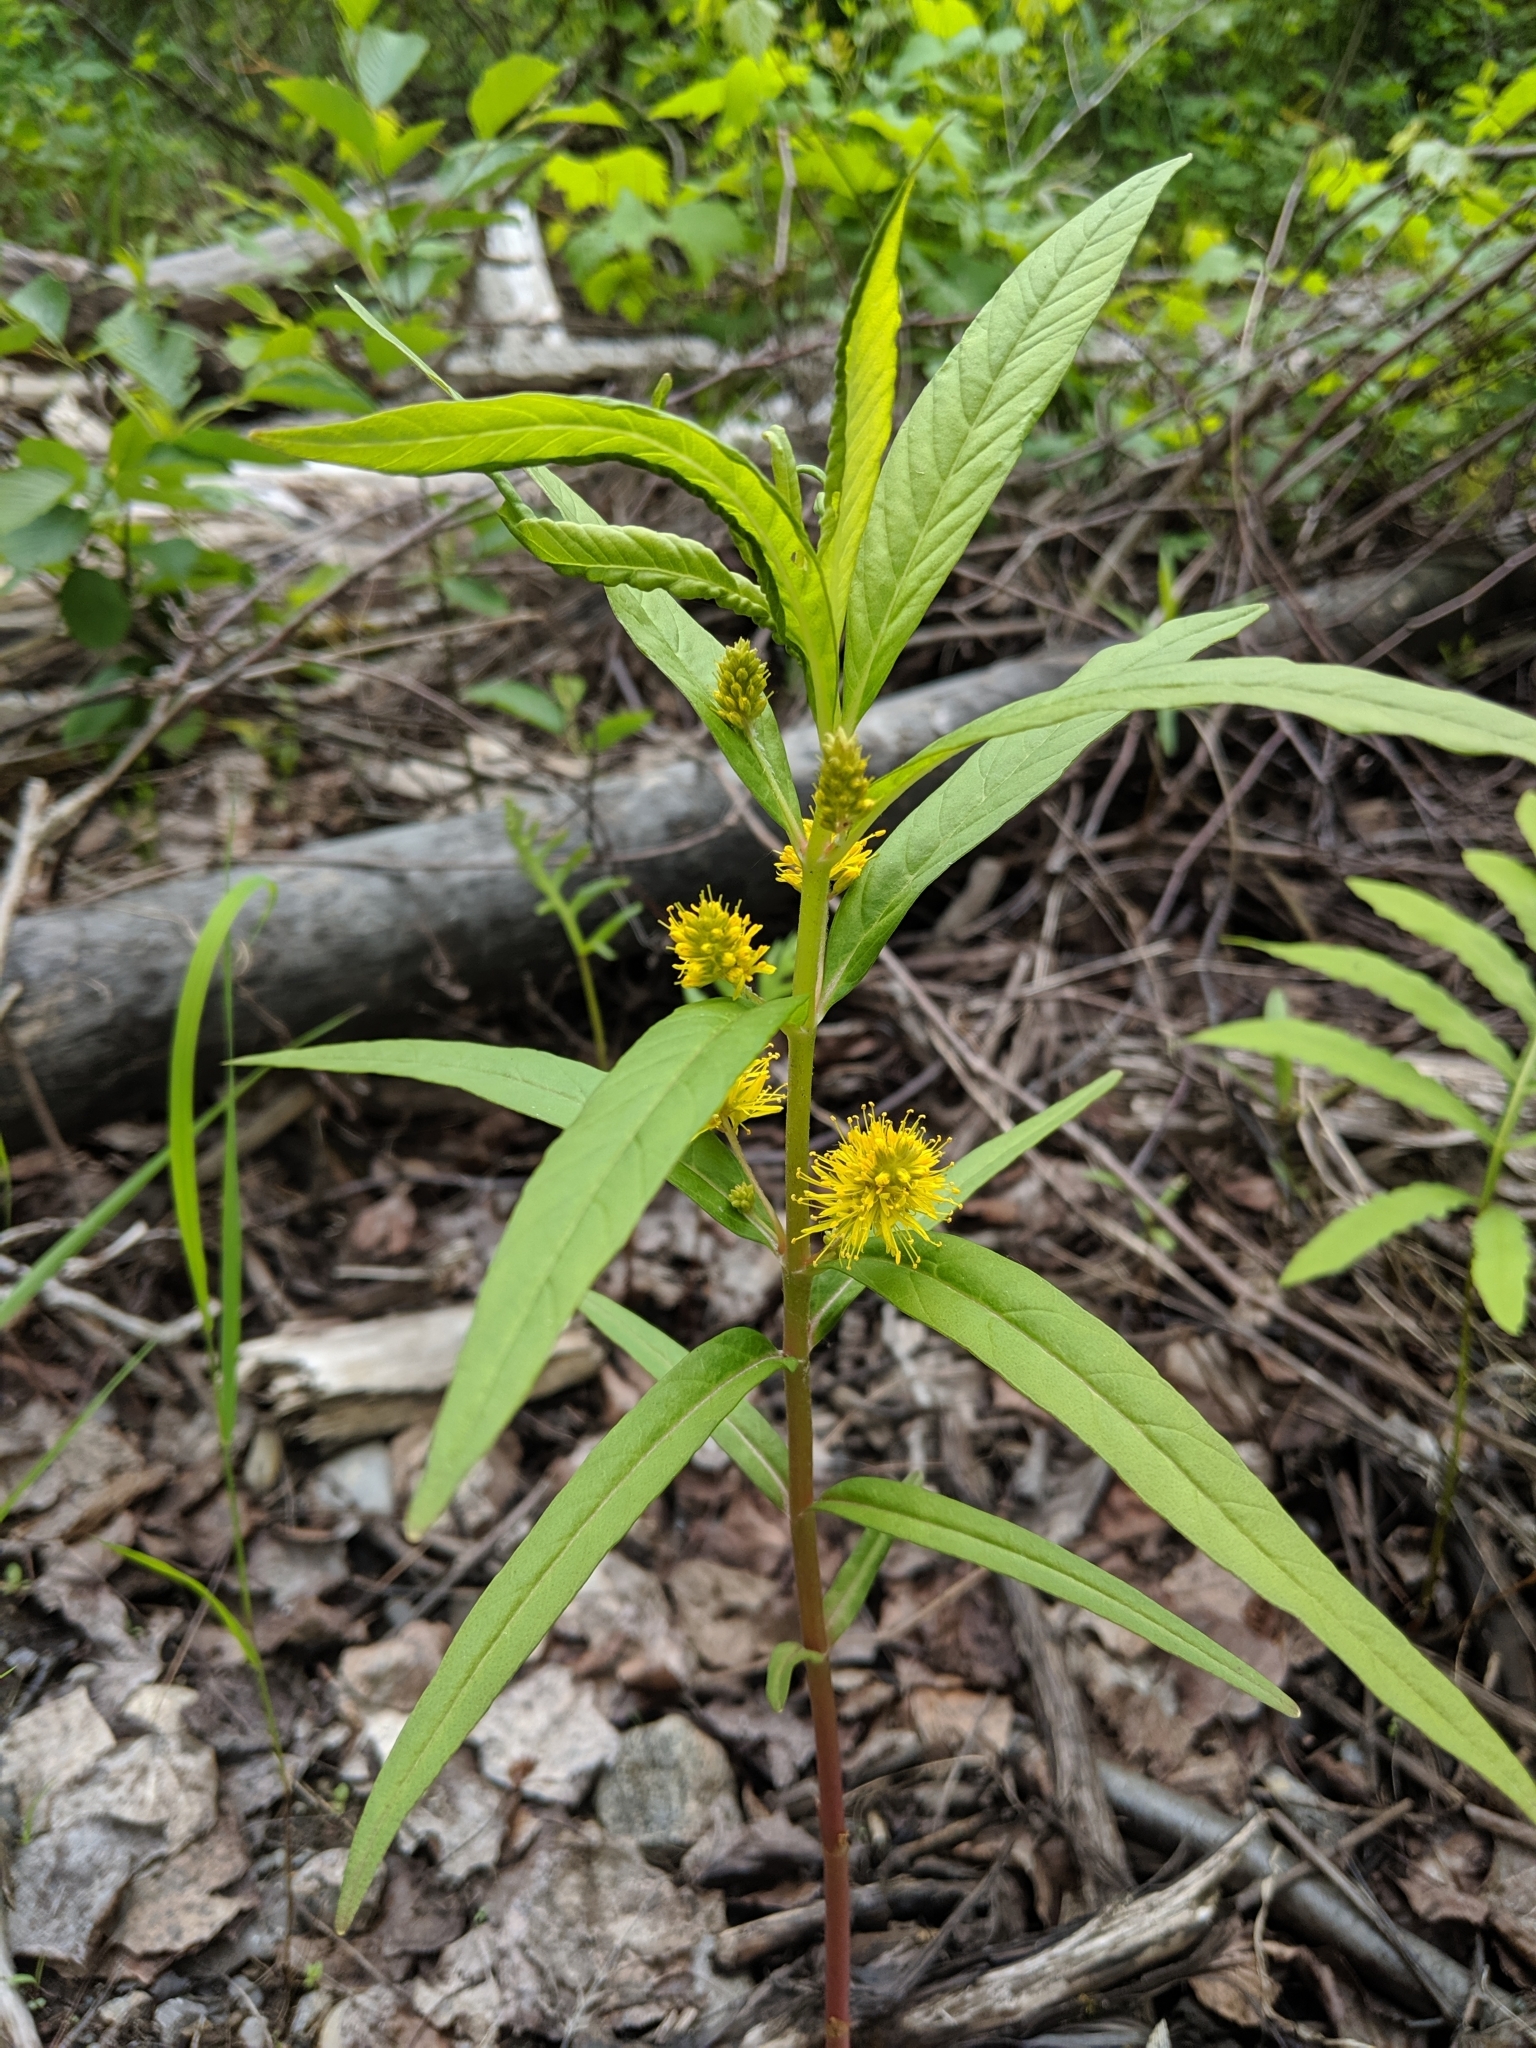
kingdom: Plantae
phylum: Tracheophyta
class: Magnoliopsida
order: Ericales
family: Primulaceae
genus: Lysimachia
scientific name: Lysimachia thyrsiflora
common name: Tufted loosestrife
